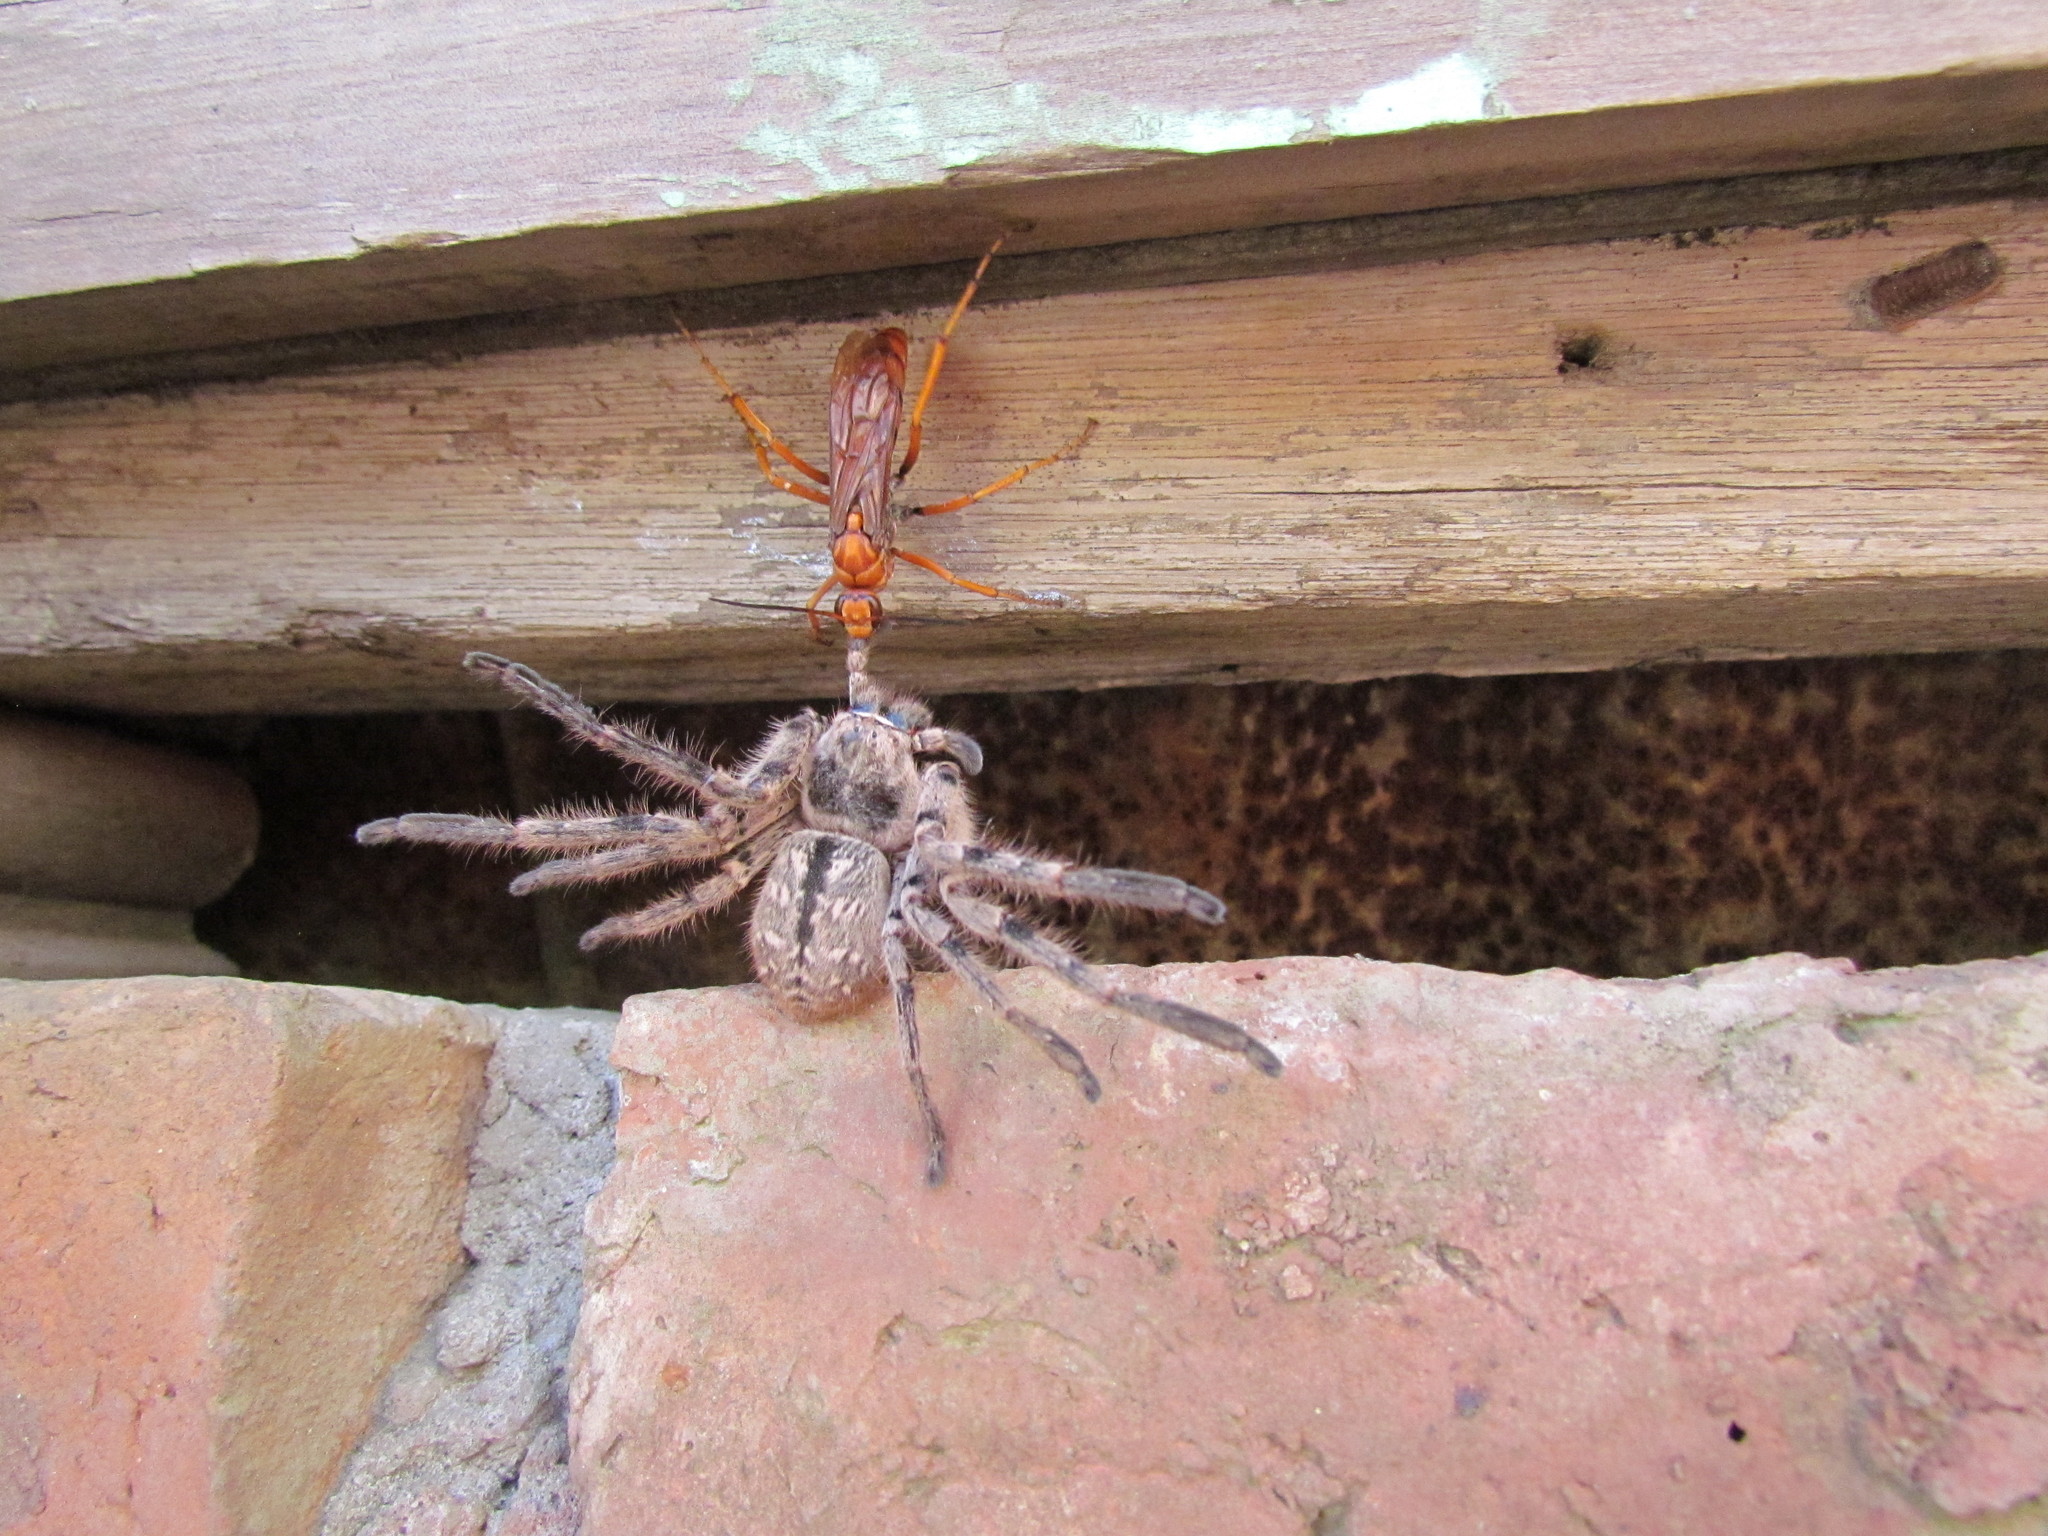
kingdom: Animalia
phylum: Arthropoda
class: Arachnida
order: Araneae
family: Sparassidae
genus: Polybetes
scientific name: Polybetes pythagoricus
